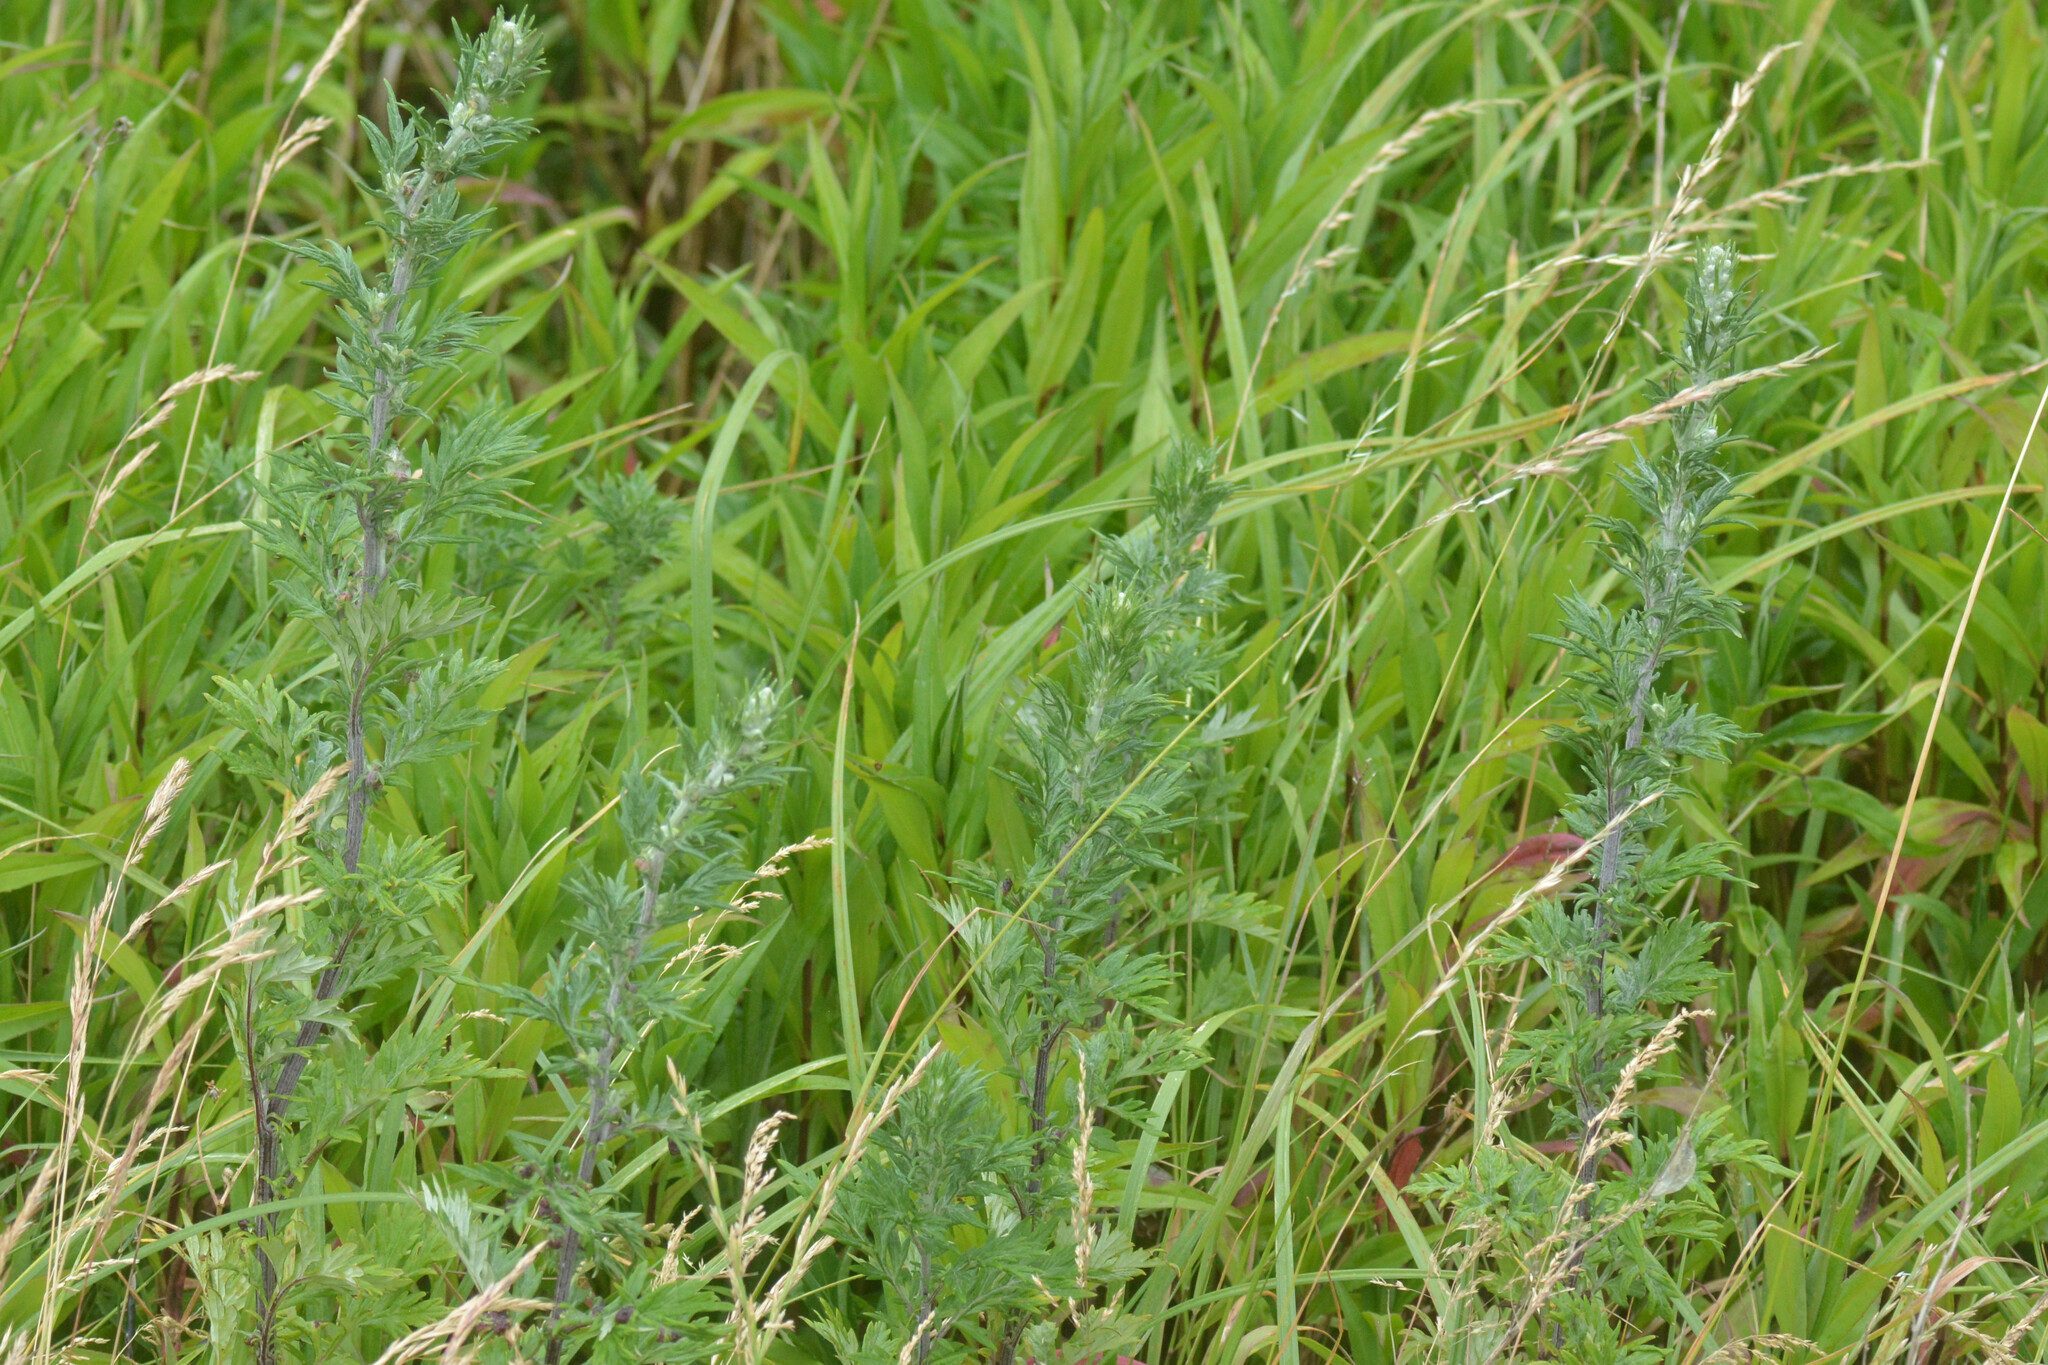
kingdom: Plantae
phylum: Tracheophyta
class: Magnoliopsida
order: Asterales
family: Asteraceae
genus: Artemisia
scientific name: Artemisia vulgaris
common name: Mugwort
